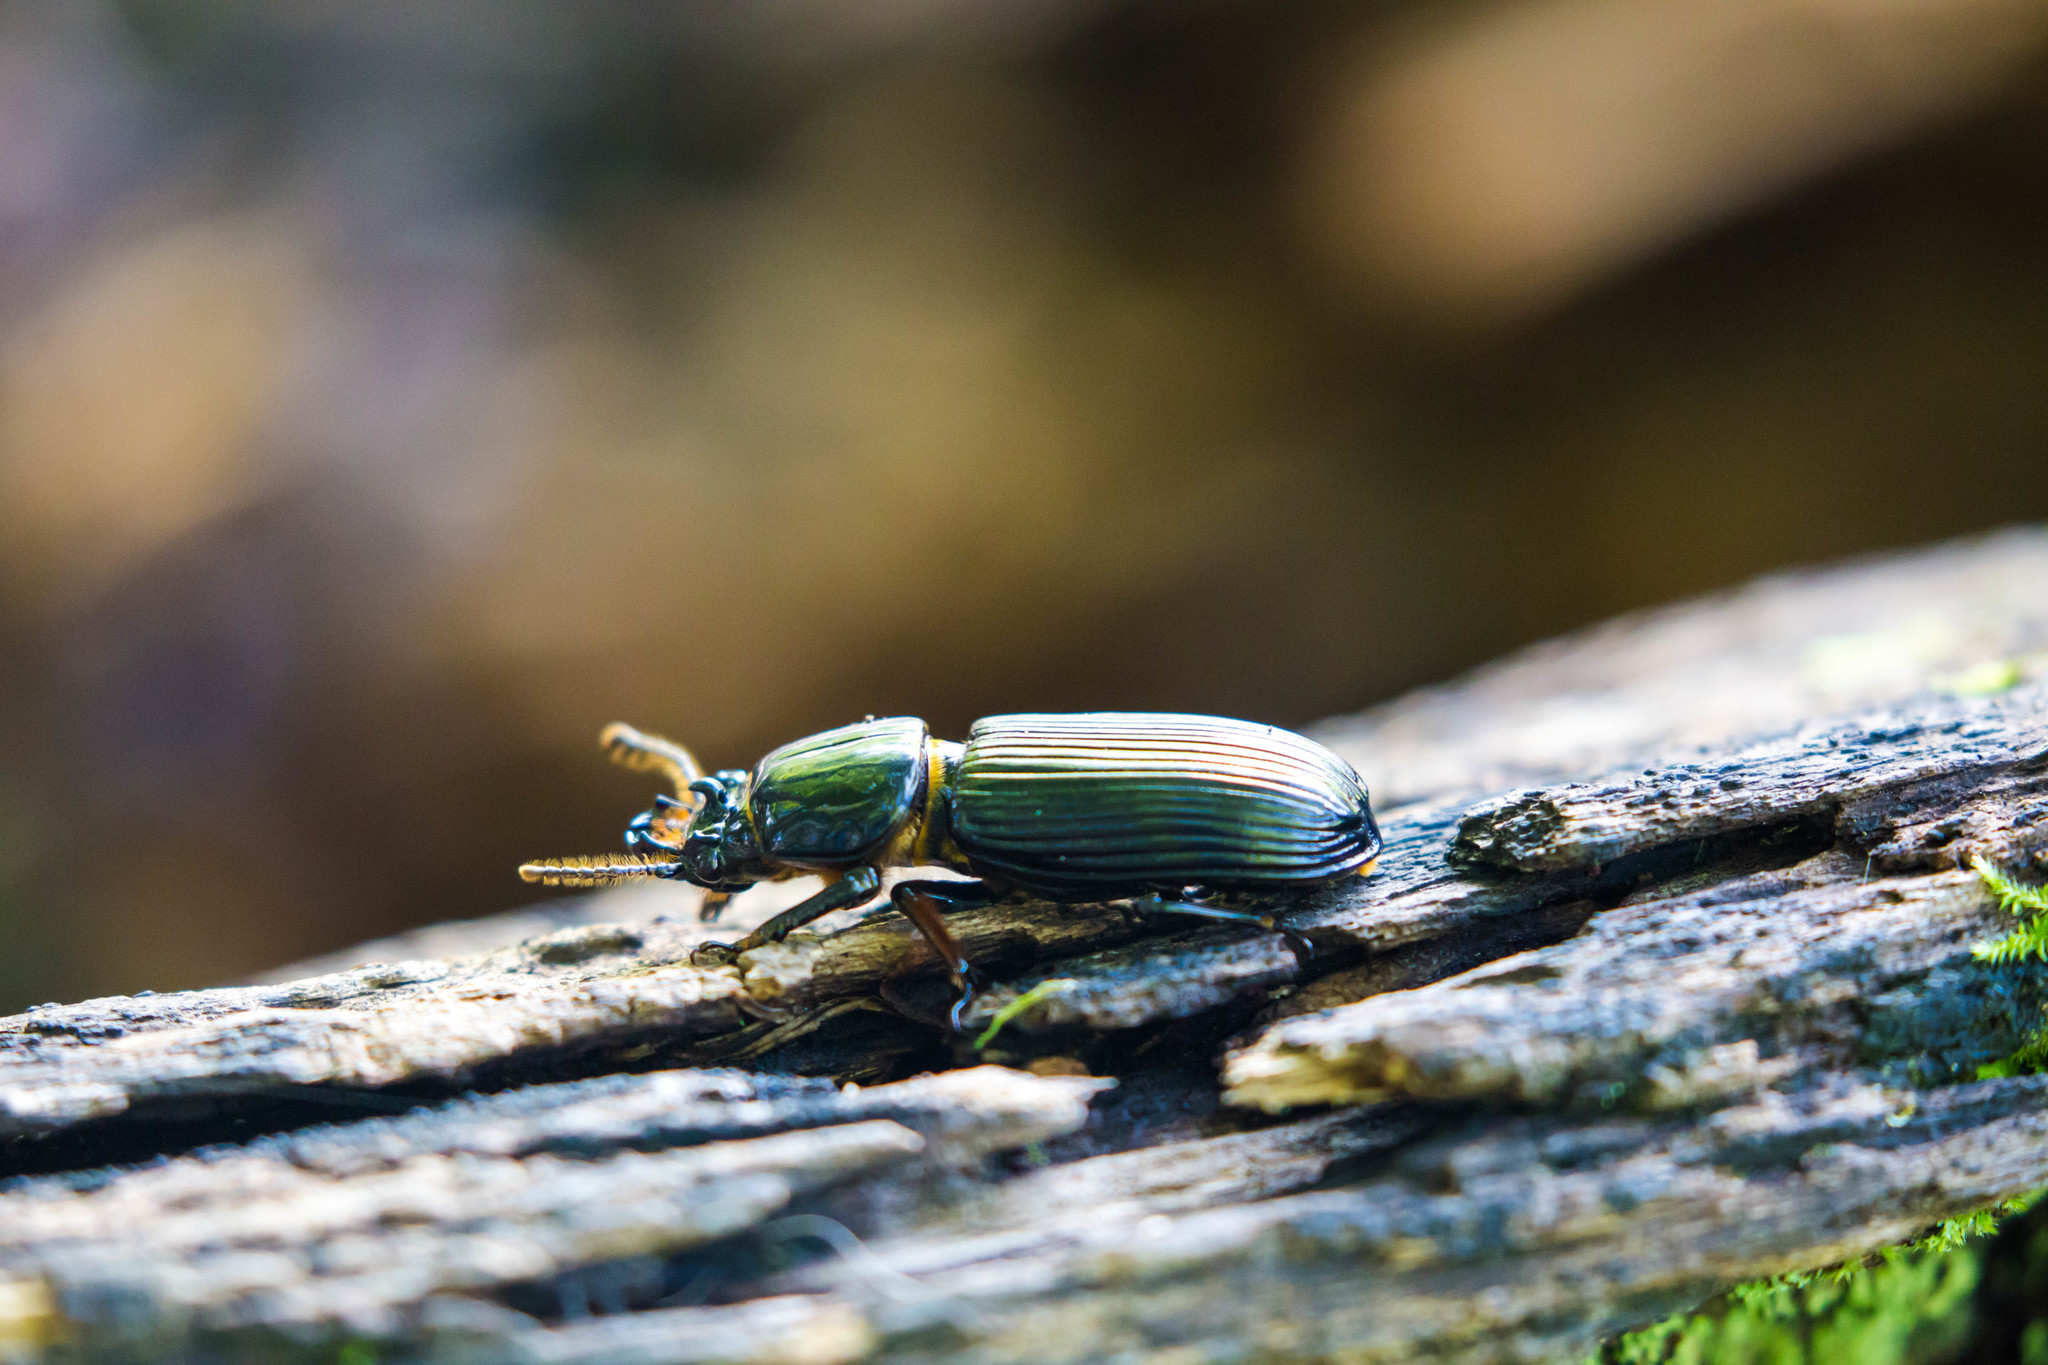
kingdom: Animalia
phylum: Arthropoda
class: Insecta
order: Coleoptera
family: Passalidae
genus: Odontotaenius
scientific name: Odontotaenius disjunctus
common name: Patent leather beetle
